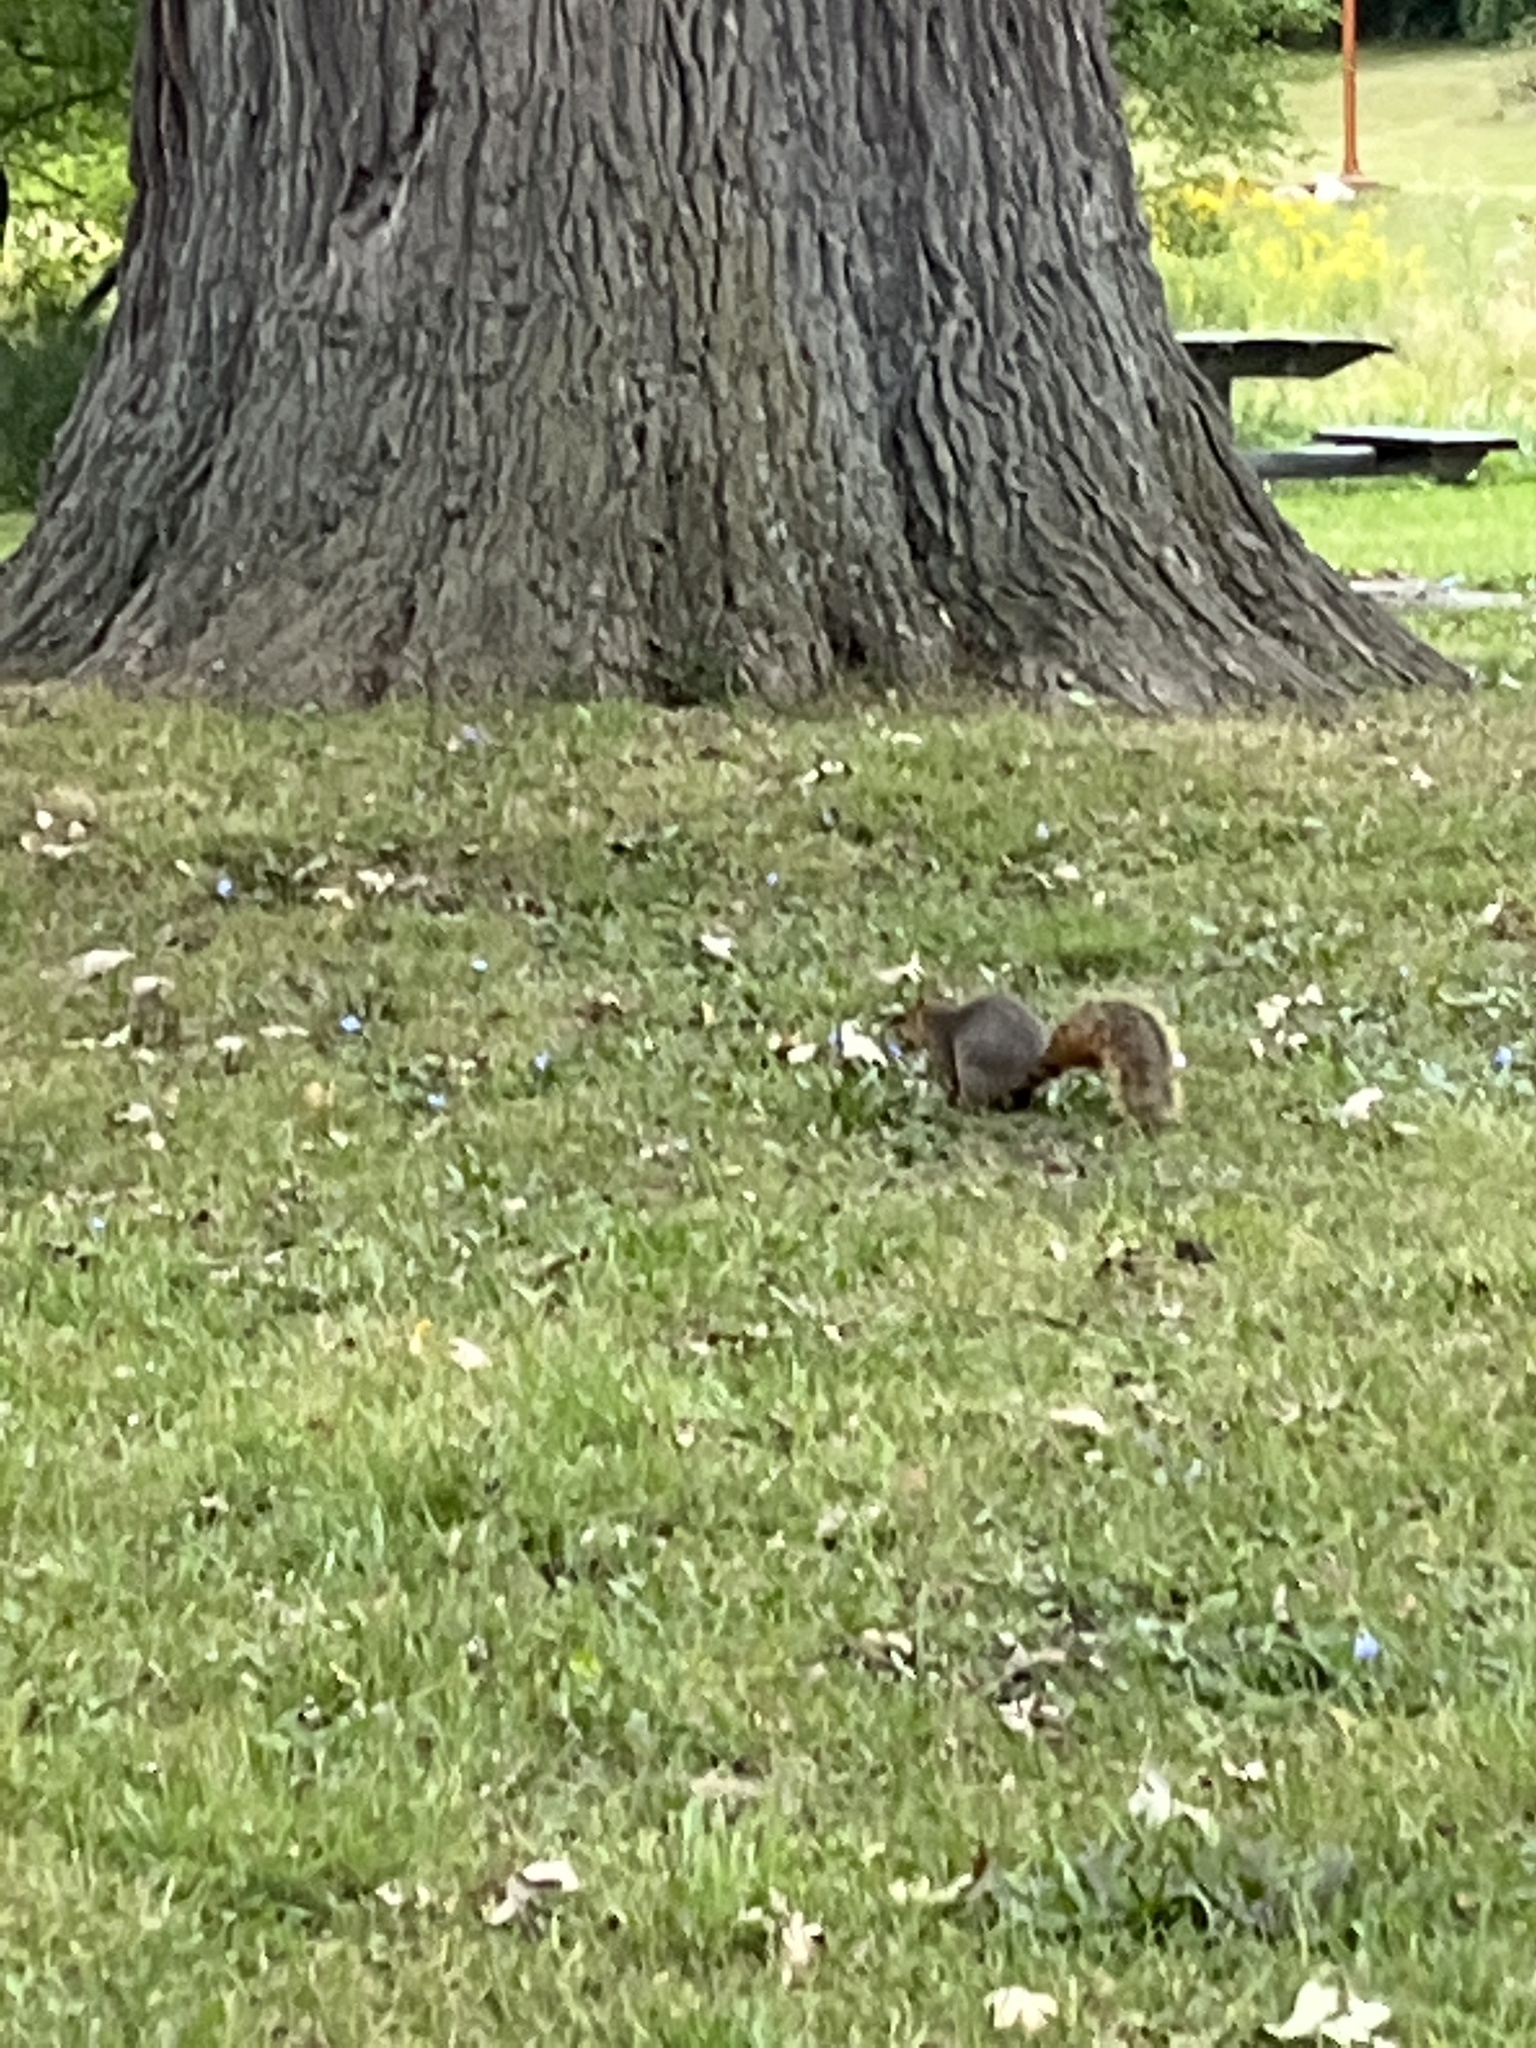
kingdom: Animalia
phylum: Chordata
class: Mammalia
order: Rodentia
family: Sciuridae
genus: Sciurus
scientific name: Sciurus niger
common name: Fox squirrel
